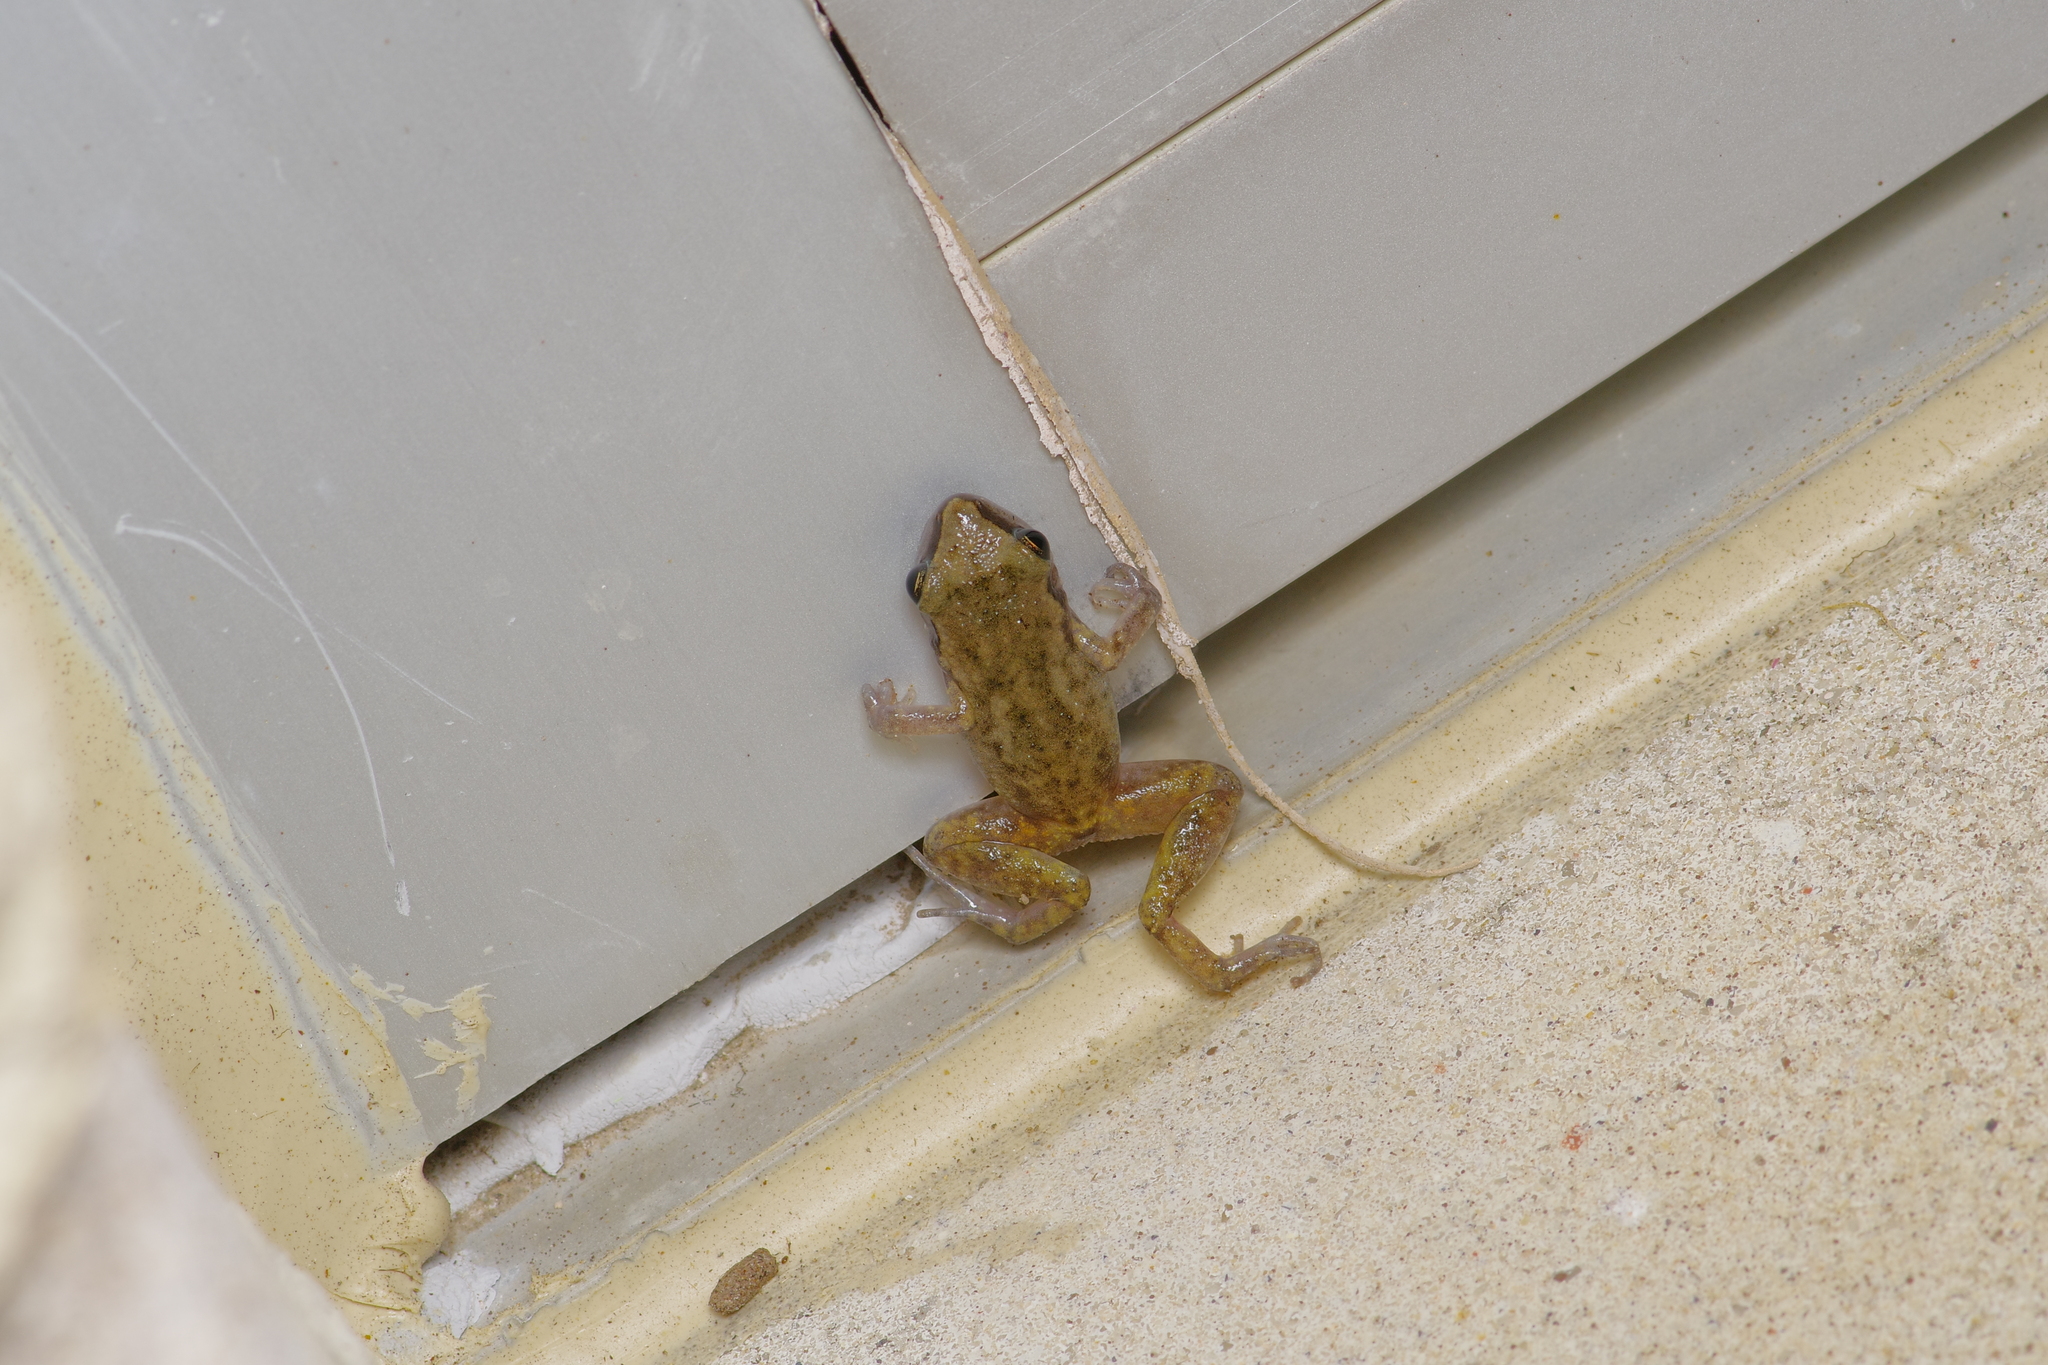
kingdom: Animalia
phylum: Chordata
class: Amphibia
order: Anura
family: Eleutherodactylidae
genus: Eleutherodactylus
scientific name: Eleutherodactylus campi
